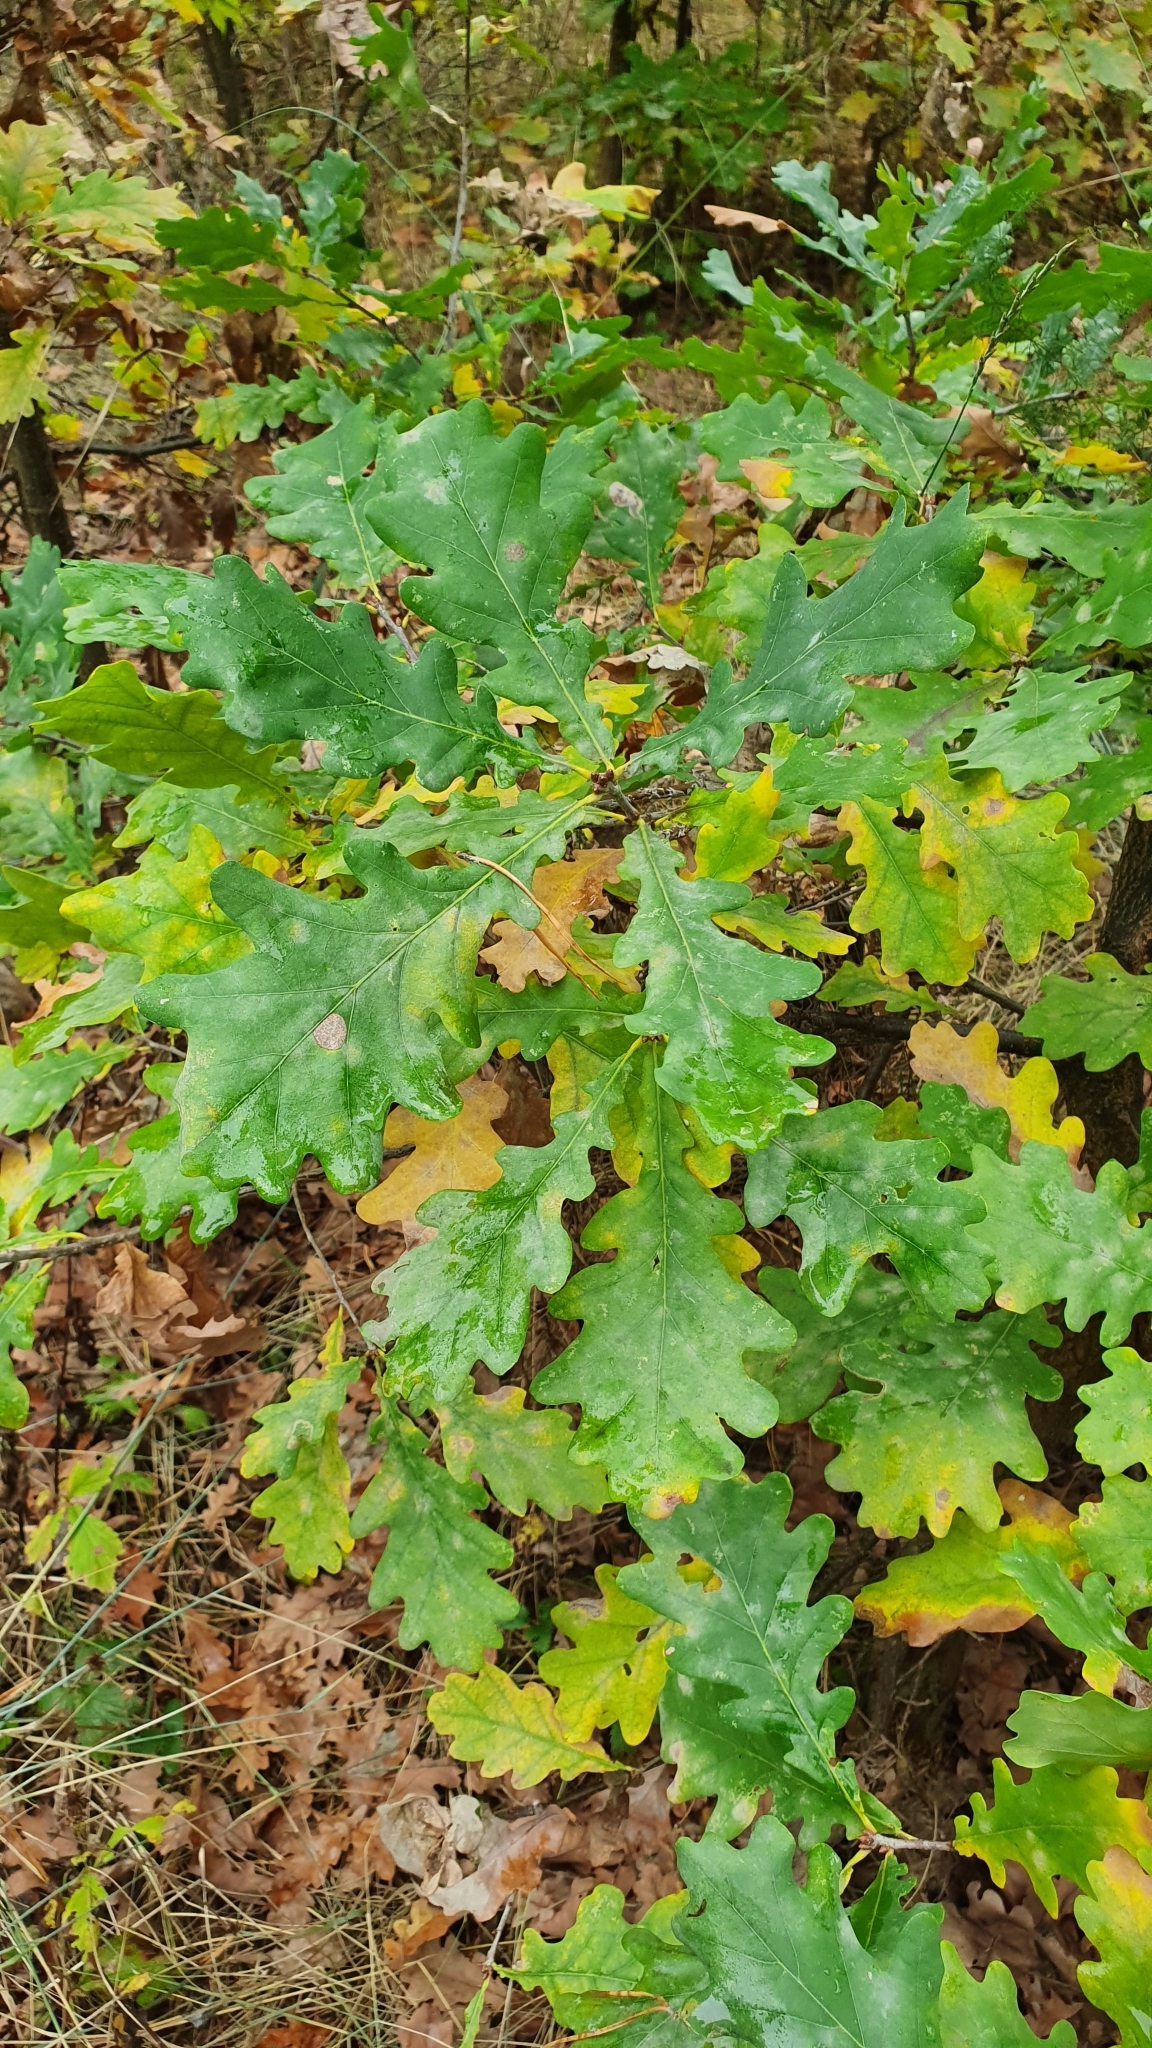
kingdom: Plantae
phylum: Tracheophyta
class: Magnoliopsida
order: Fagales
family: Fagaceae
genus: Quercus
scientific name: Quercus robur
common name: Pedunculate oak
